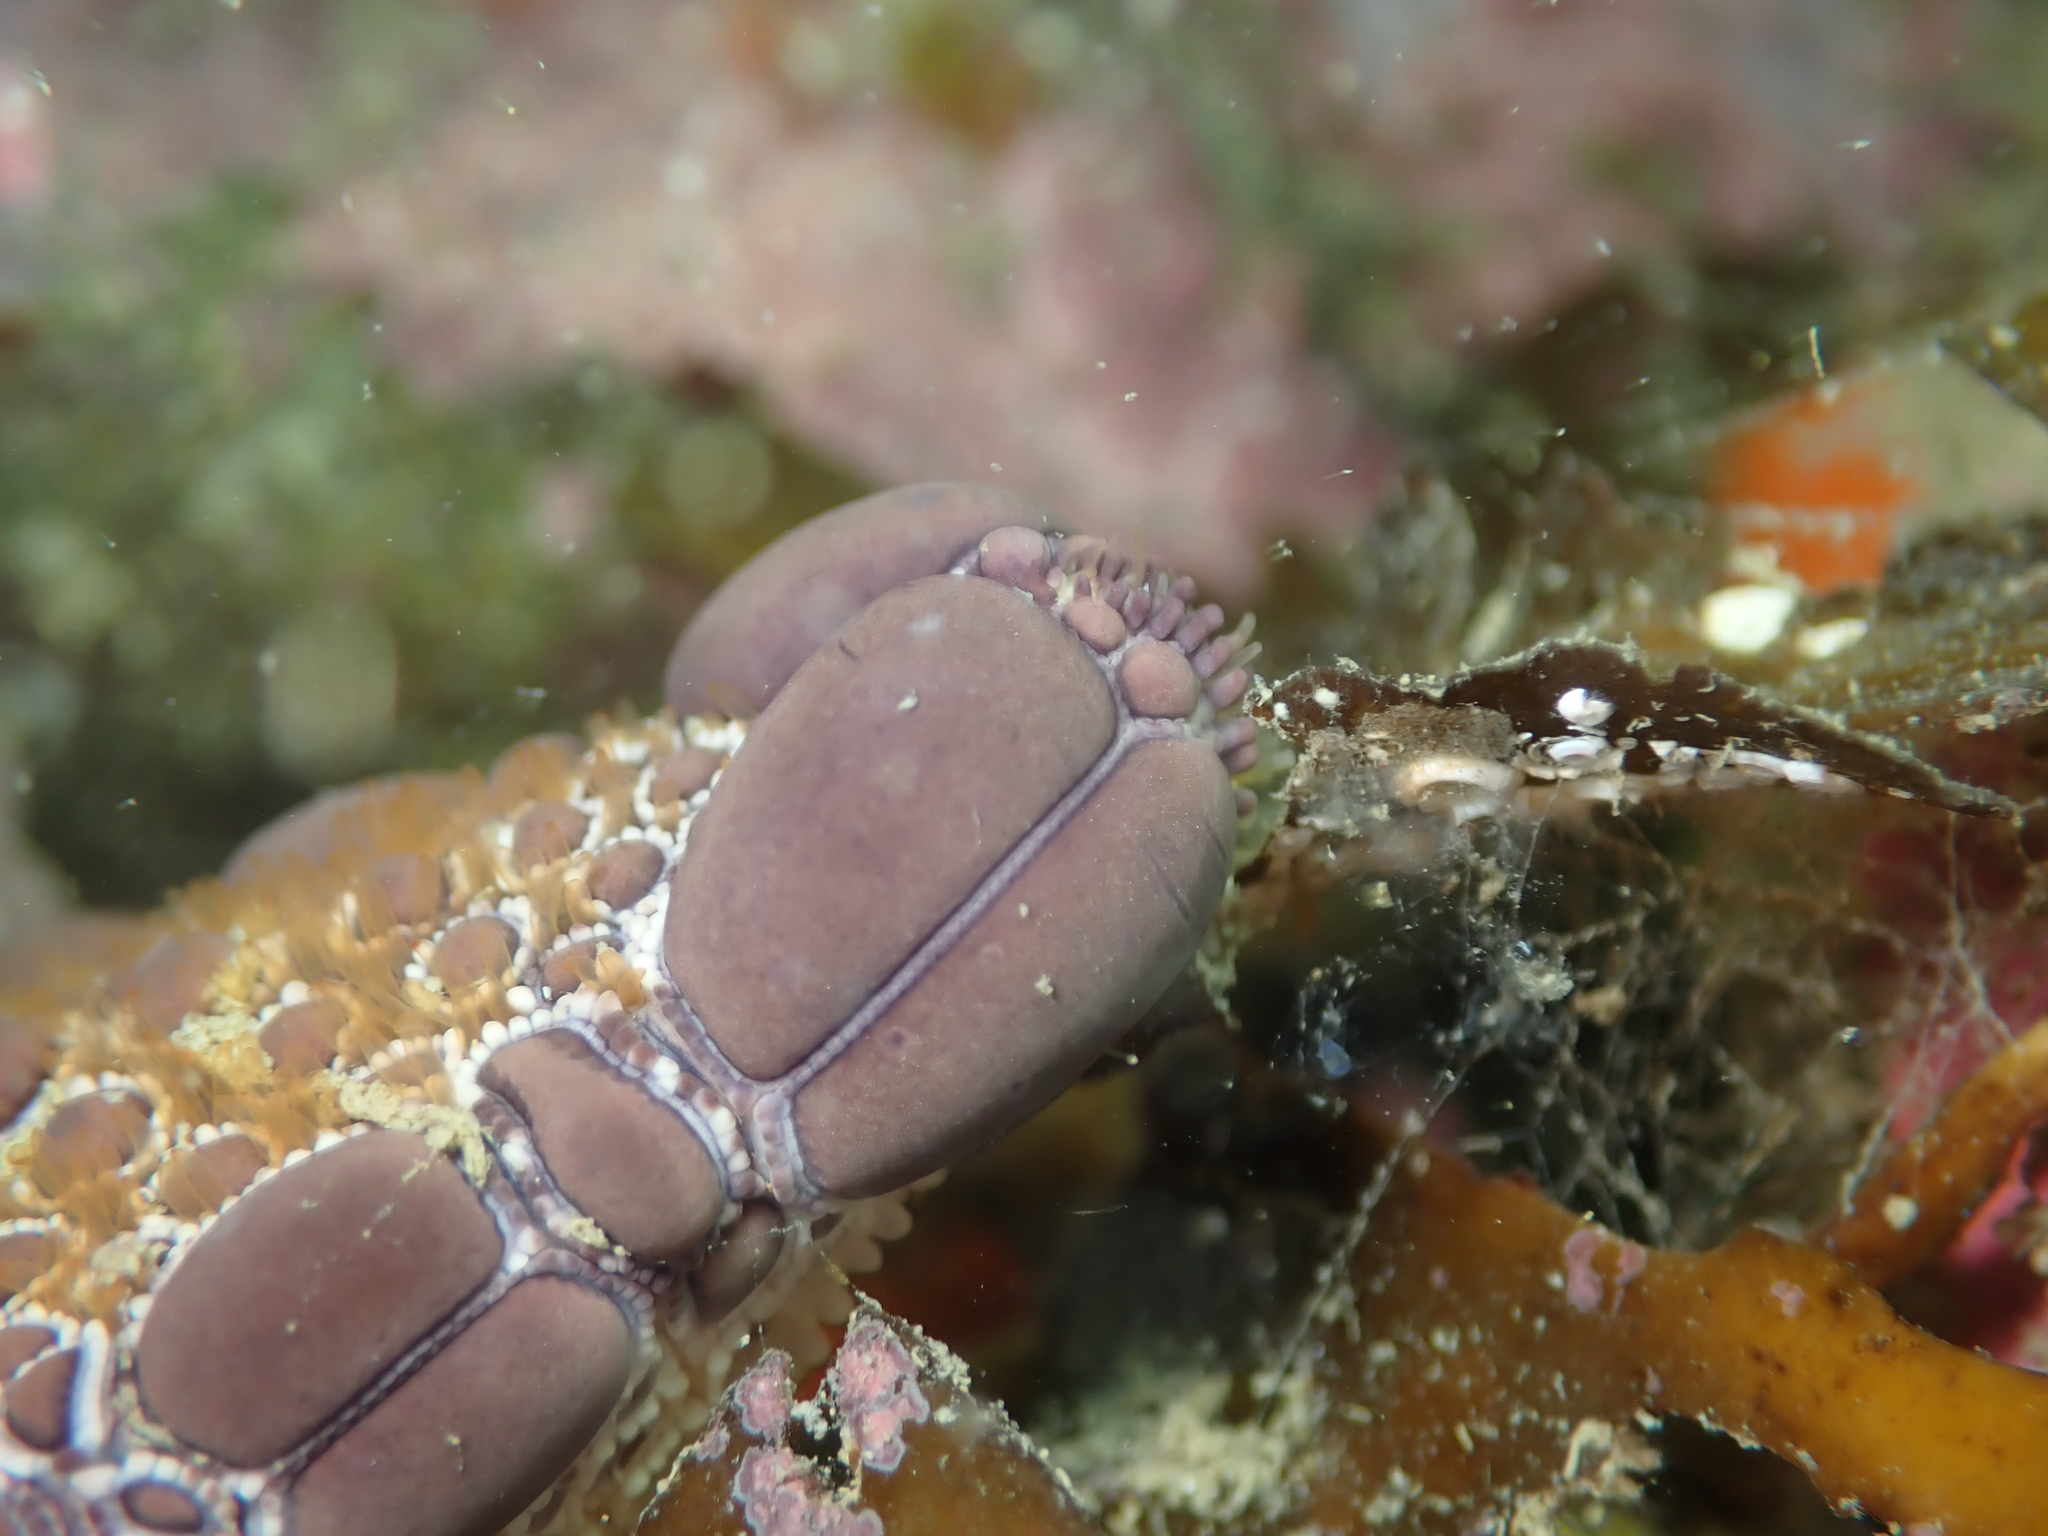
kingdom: Animalia
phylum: Echinodermata
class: Asteroidea
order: Valvatida
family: Goniasteridae
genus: Pentagonaster
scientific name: Pentagonaster pulchellus
